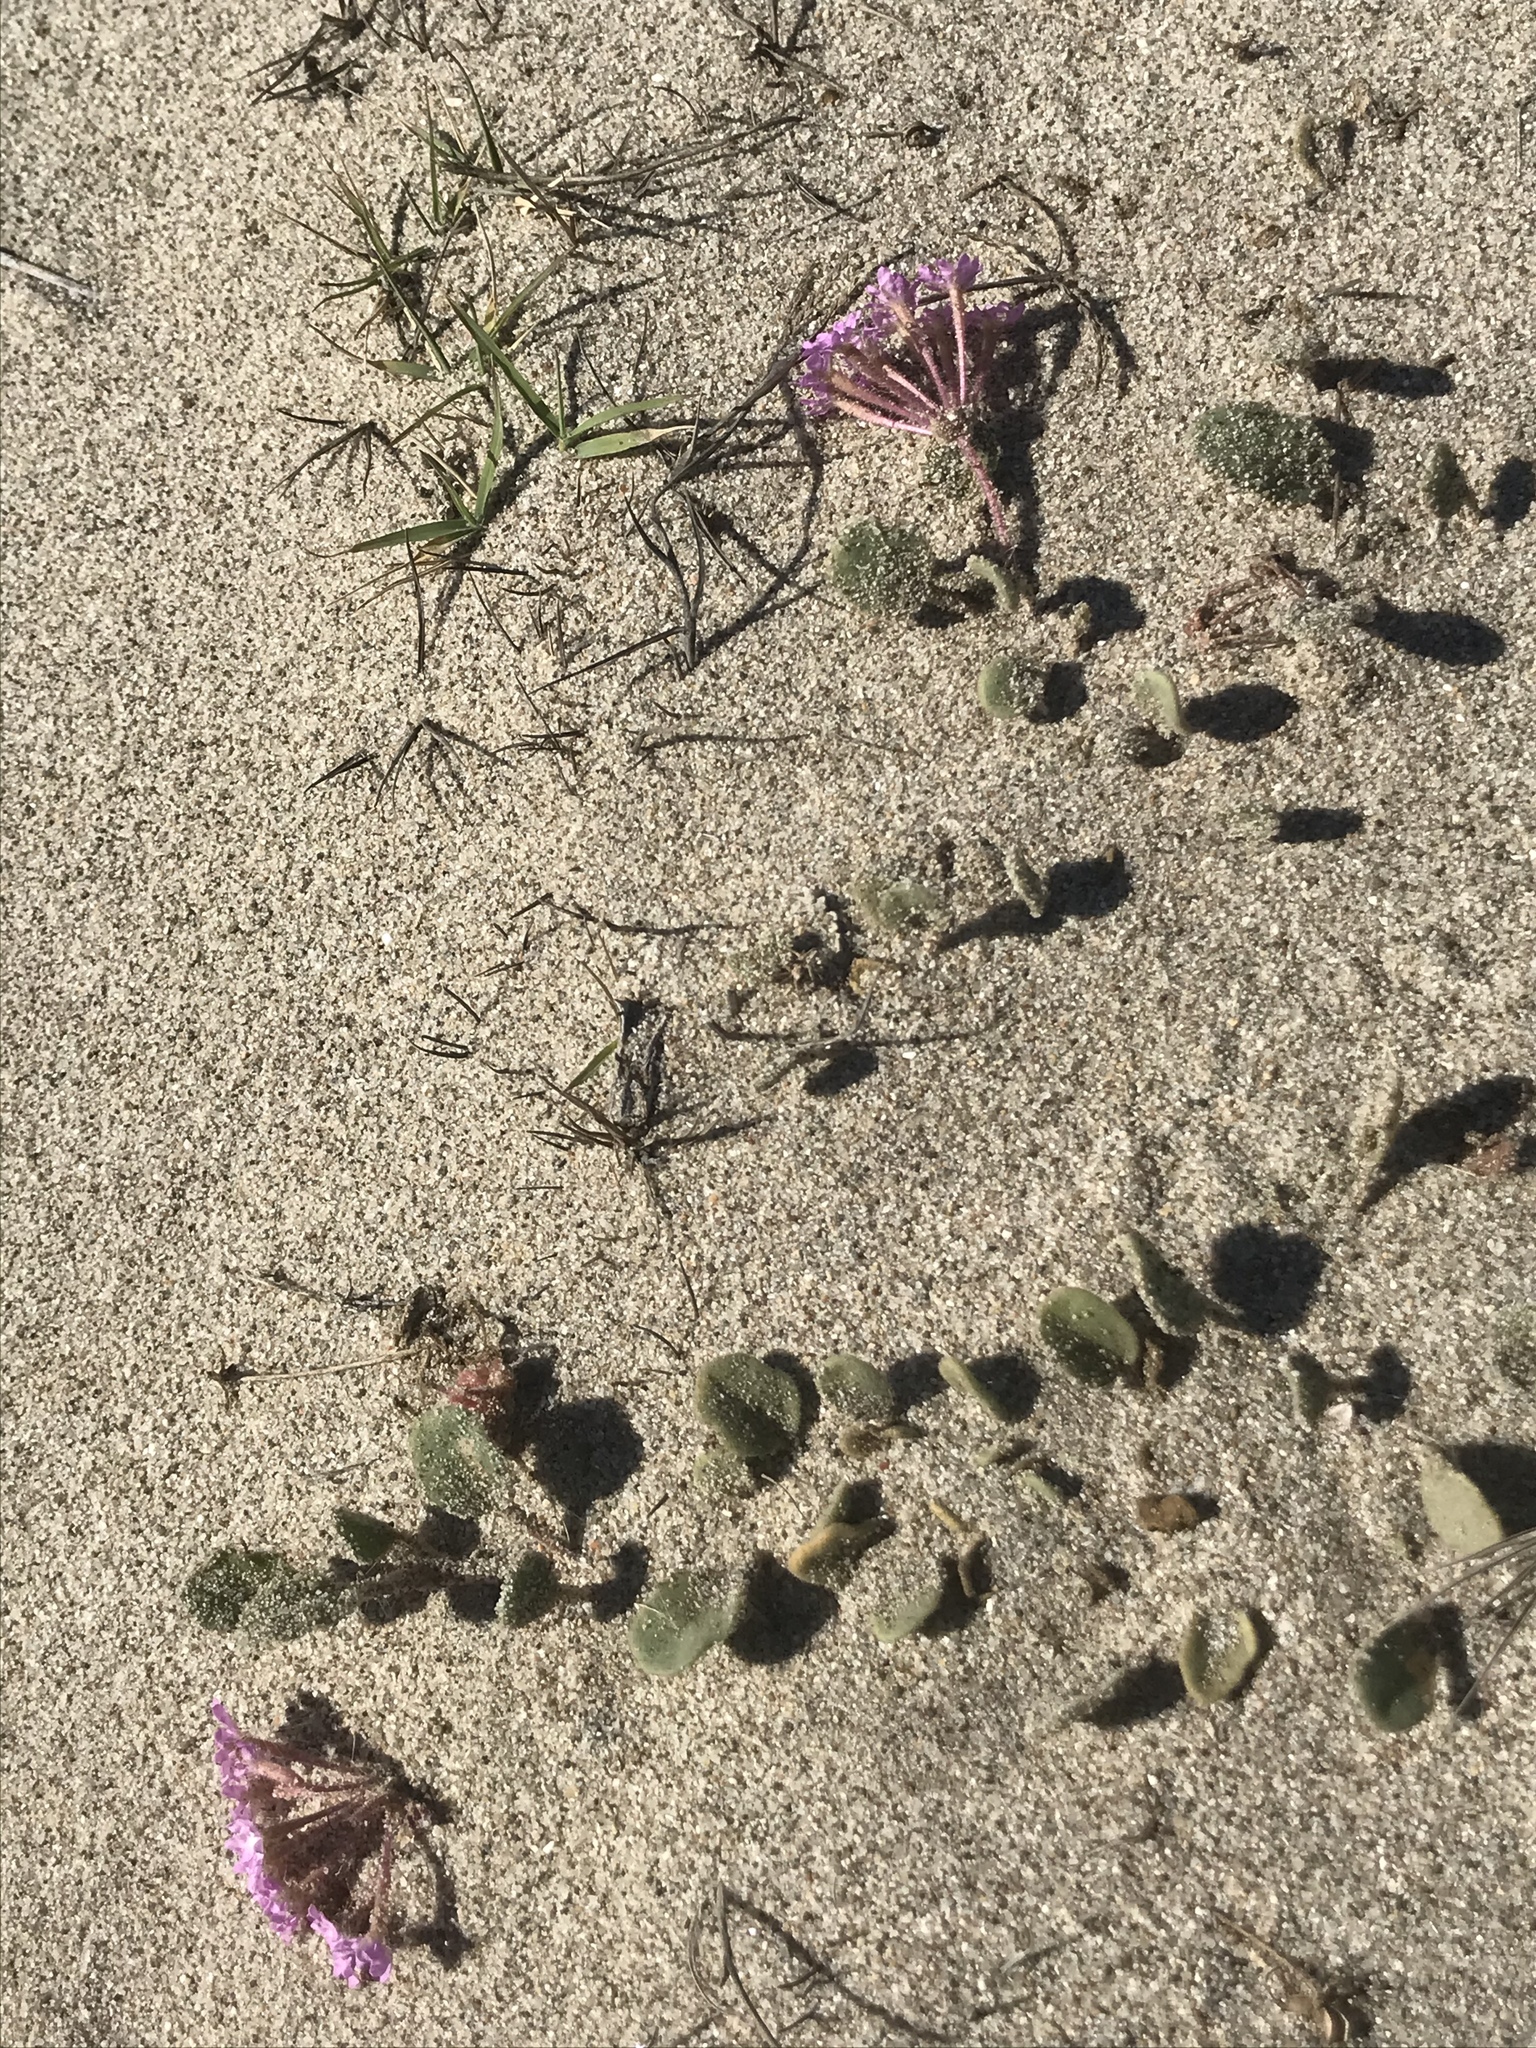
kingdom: Plantae
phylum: Tracheophyta
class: Magnoliopsida
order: Caryophyllales
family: Nyctaginaceae
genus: Abronia
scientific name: Abronia umbellata
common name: Sand-verbena
